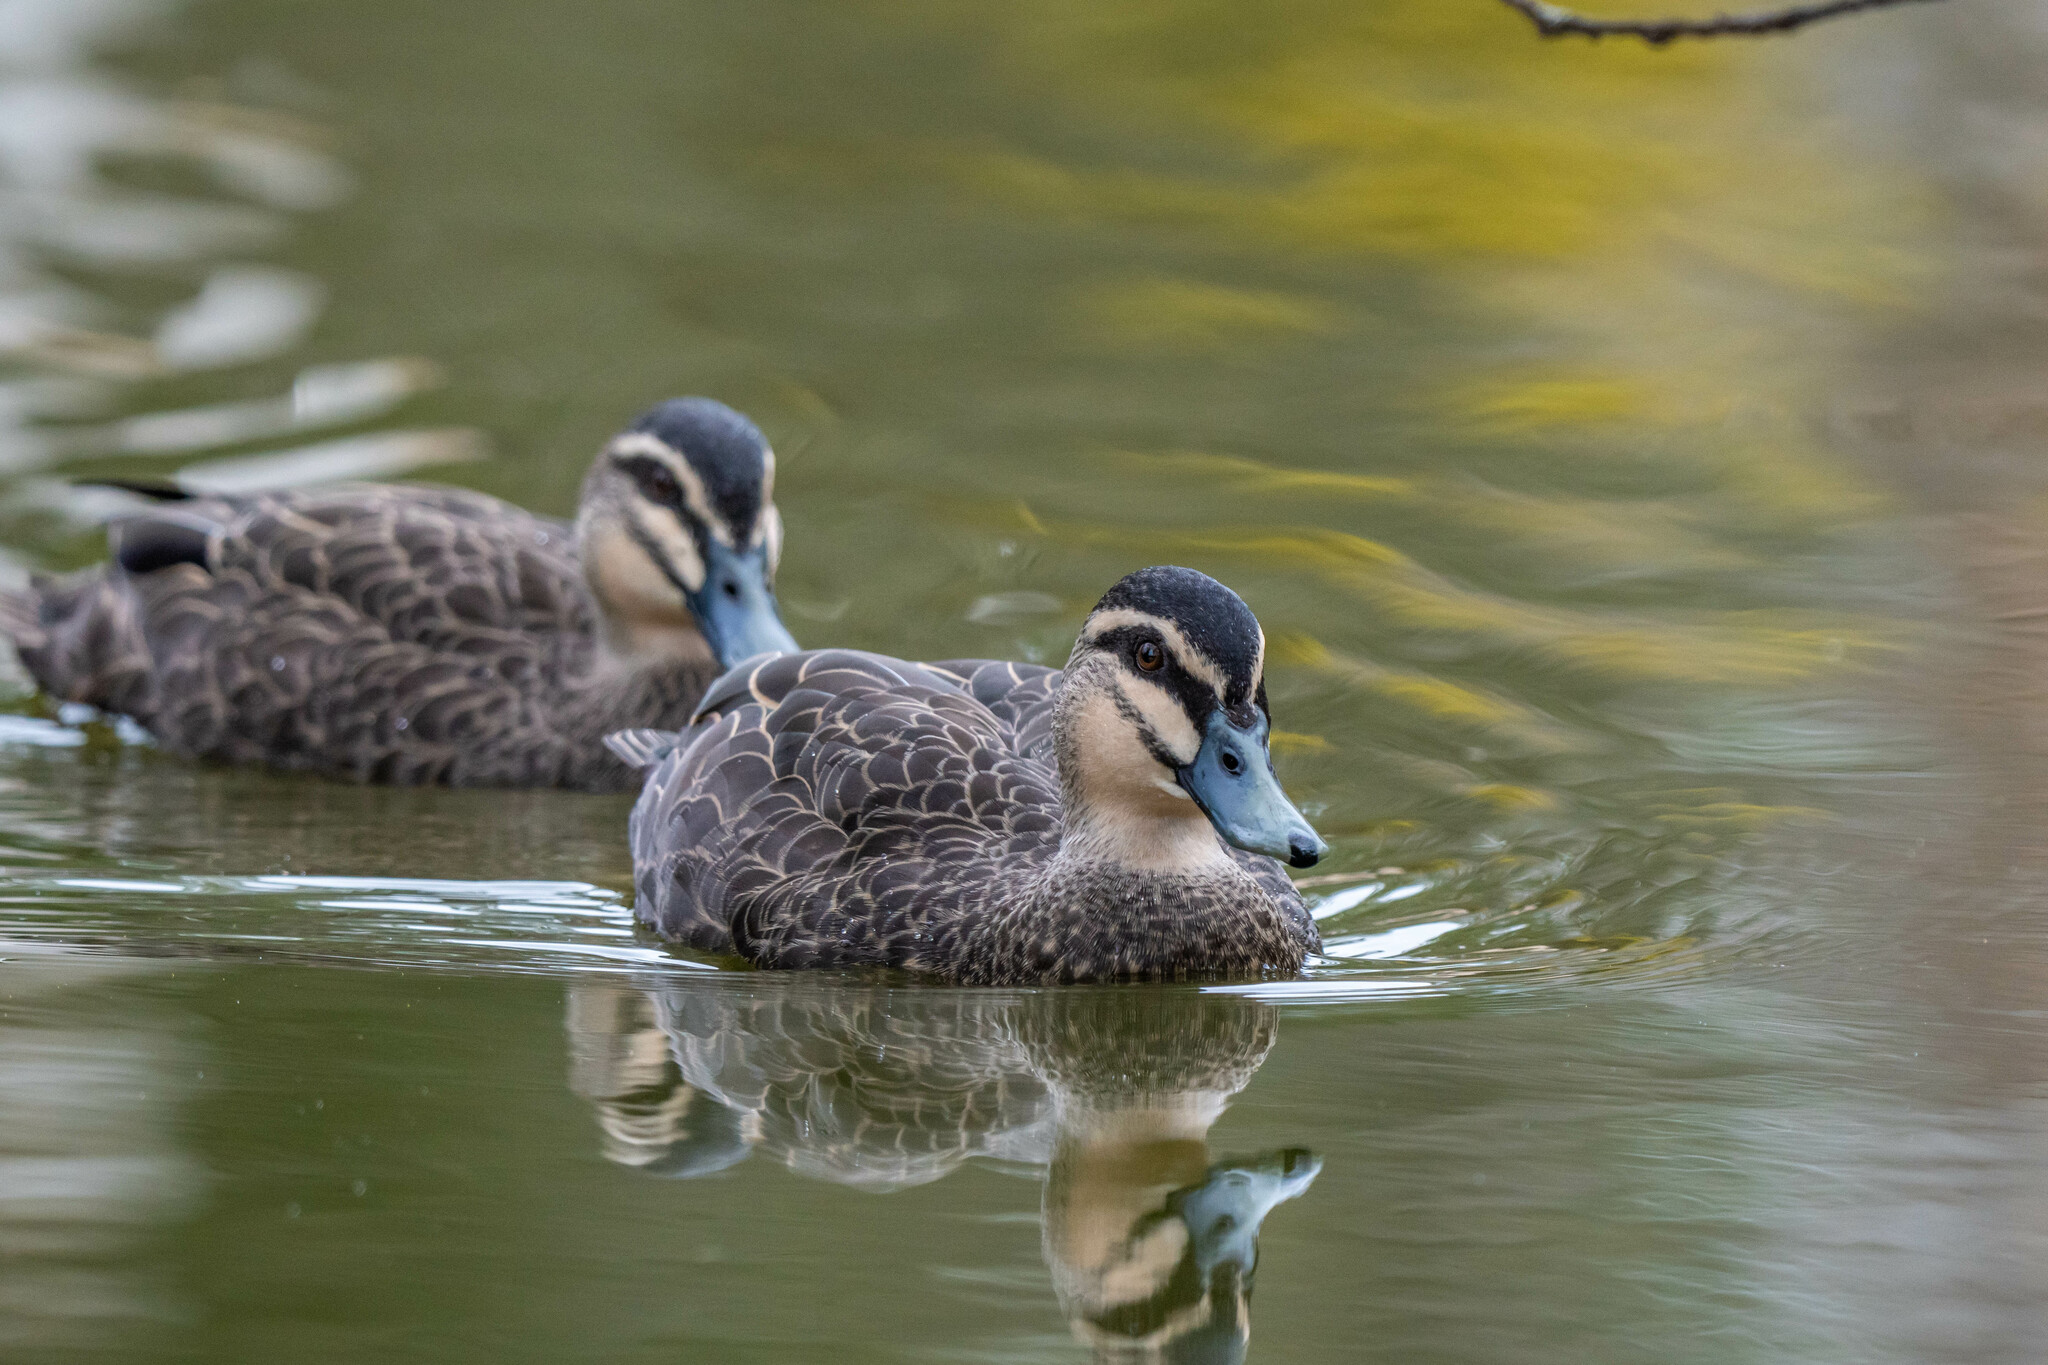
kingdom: Animalia
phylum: Chordata
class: Aves
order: Anseriformes
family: Anatidae
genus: Anas
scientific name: Anas superciliosa
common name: Pacific black duck
